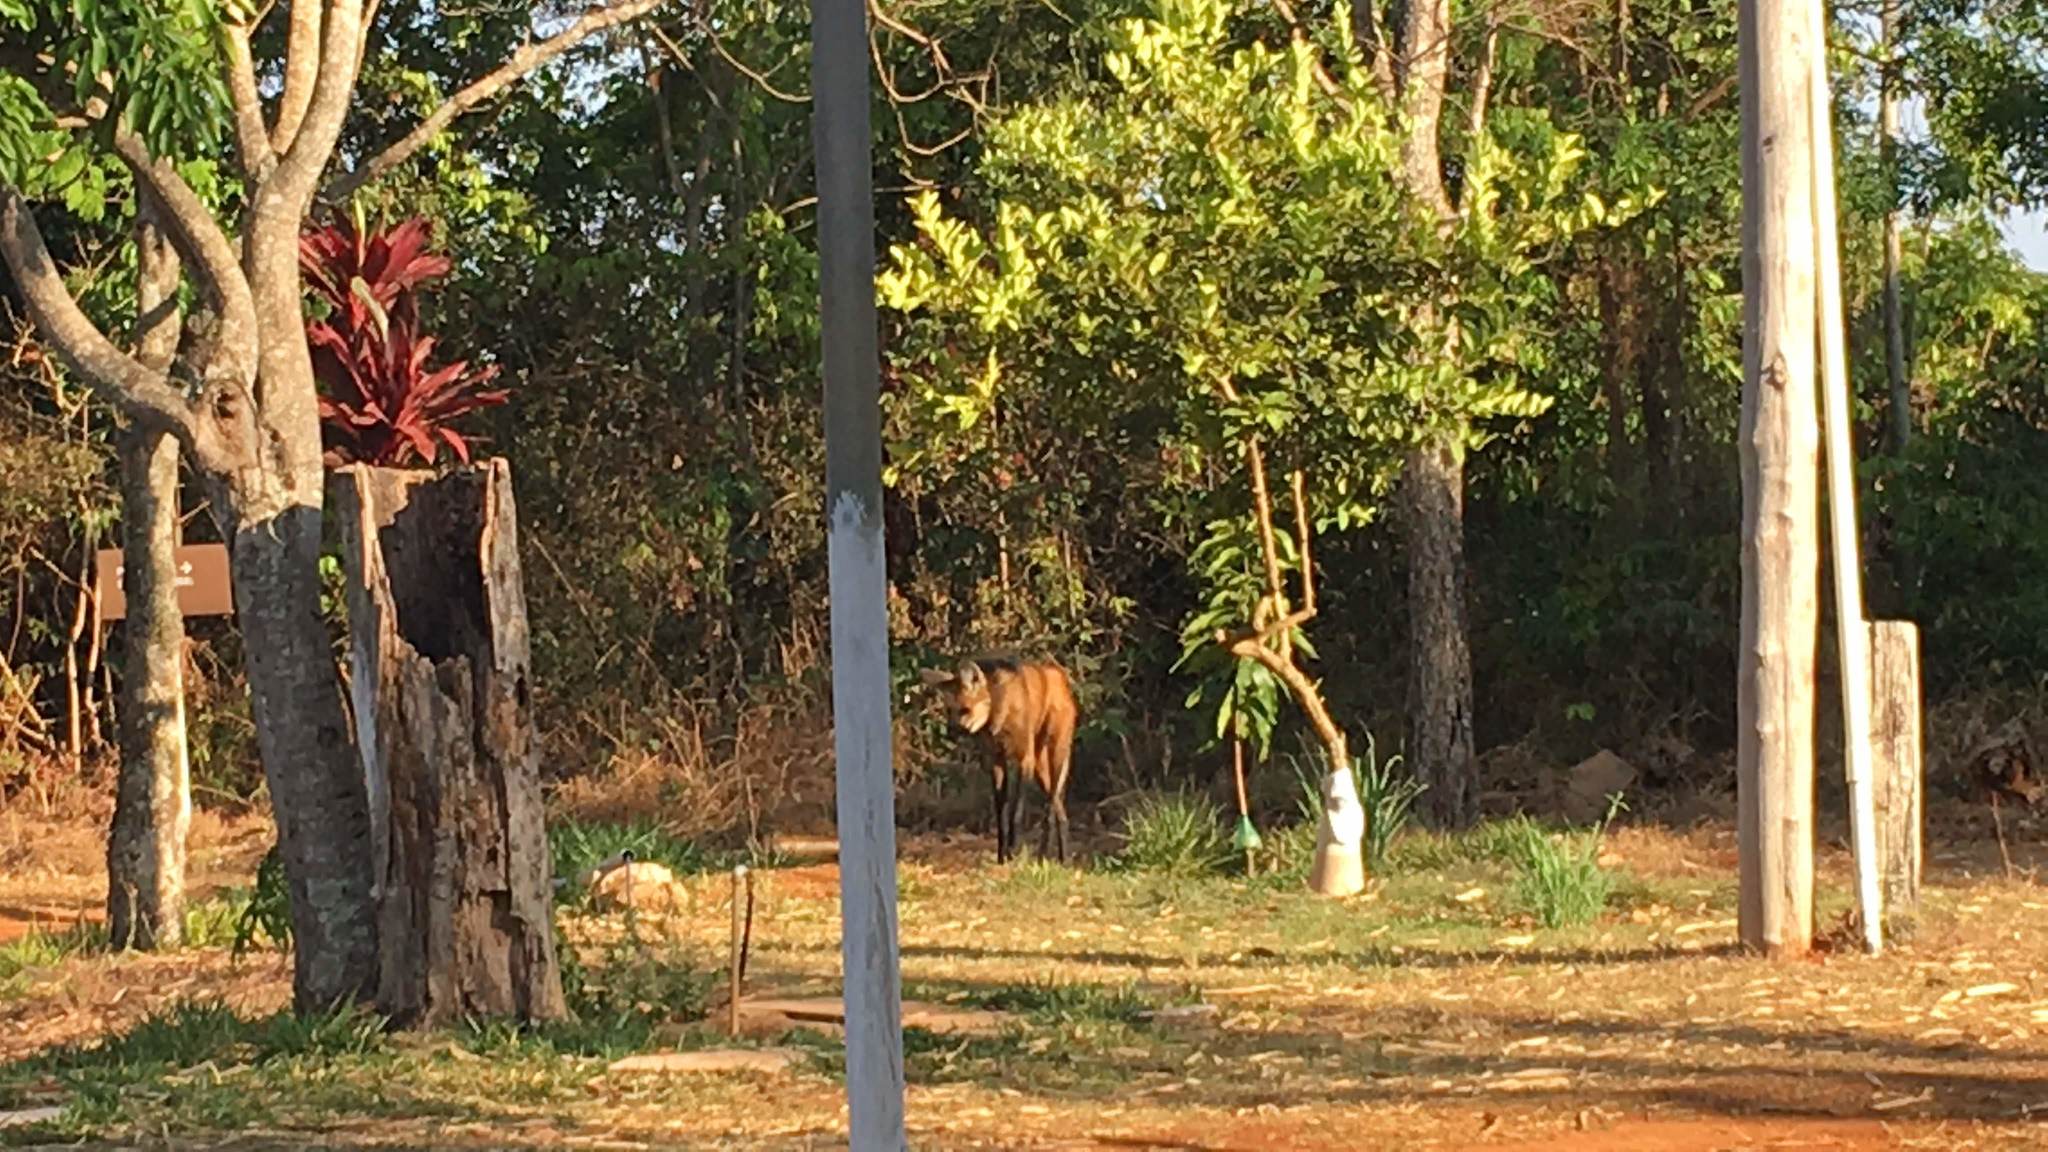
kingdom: Animalia
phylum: Chordata
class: Mammalia
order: Carnivora
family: Canidae
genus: Chrysocyon
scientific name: Chrysocyon brachyurus
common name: Maned wolf
